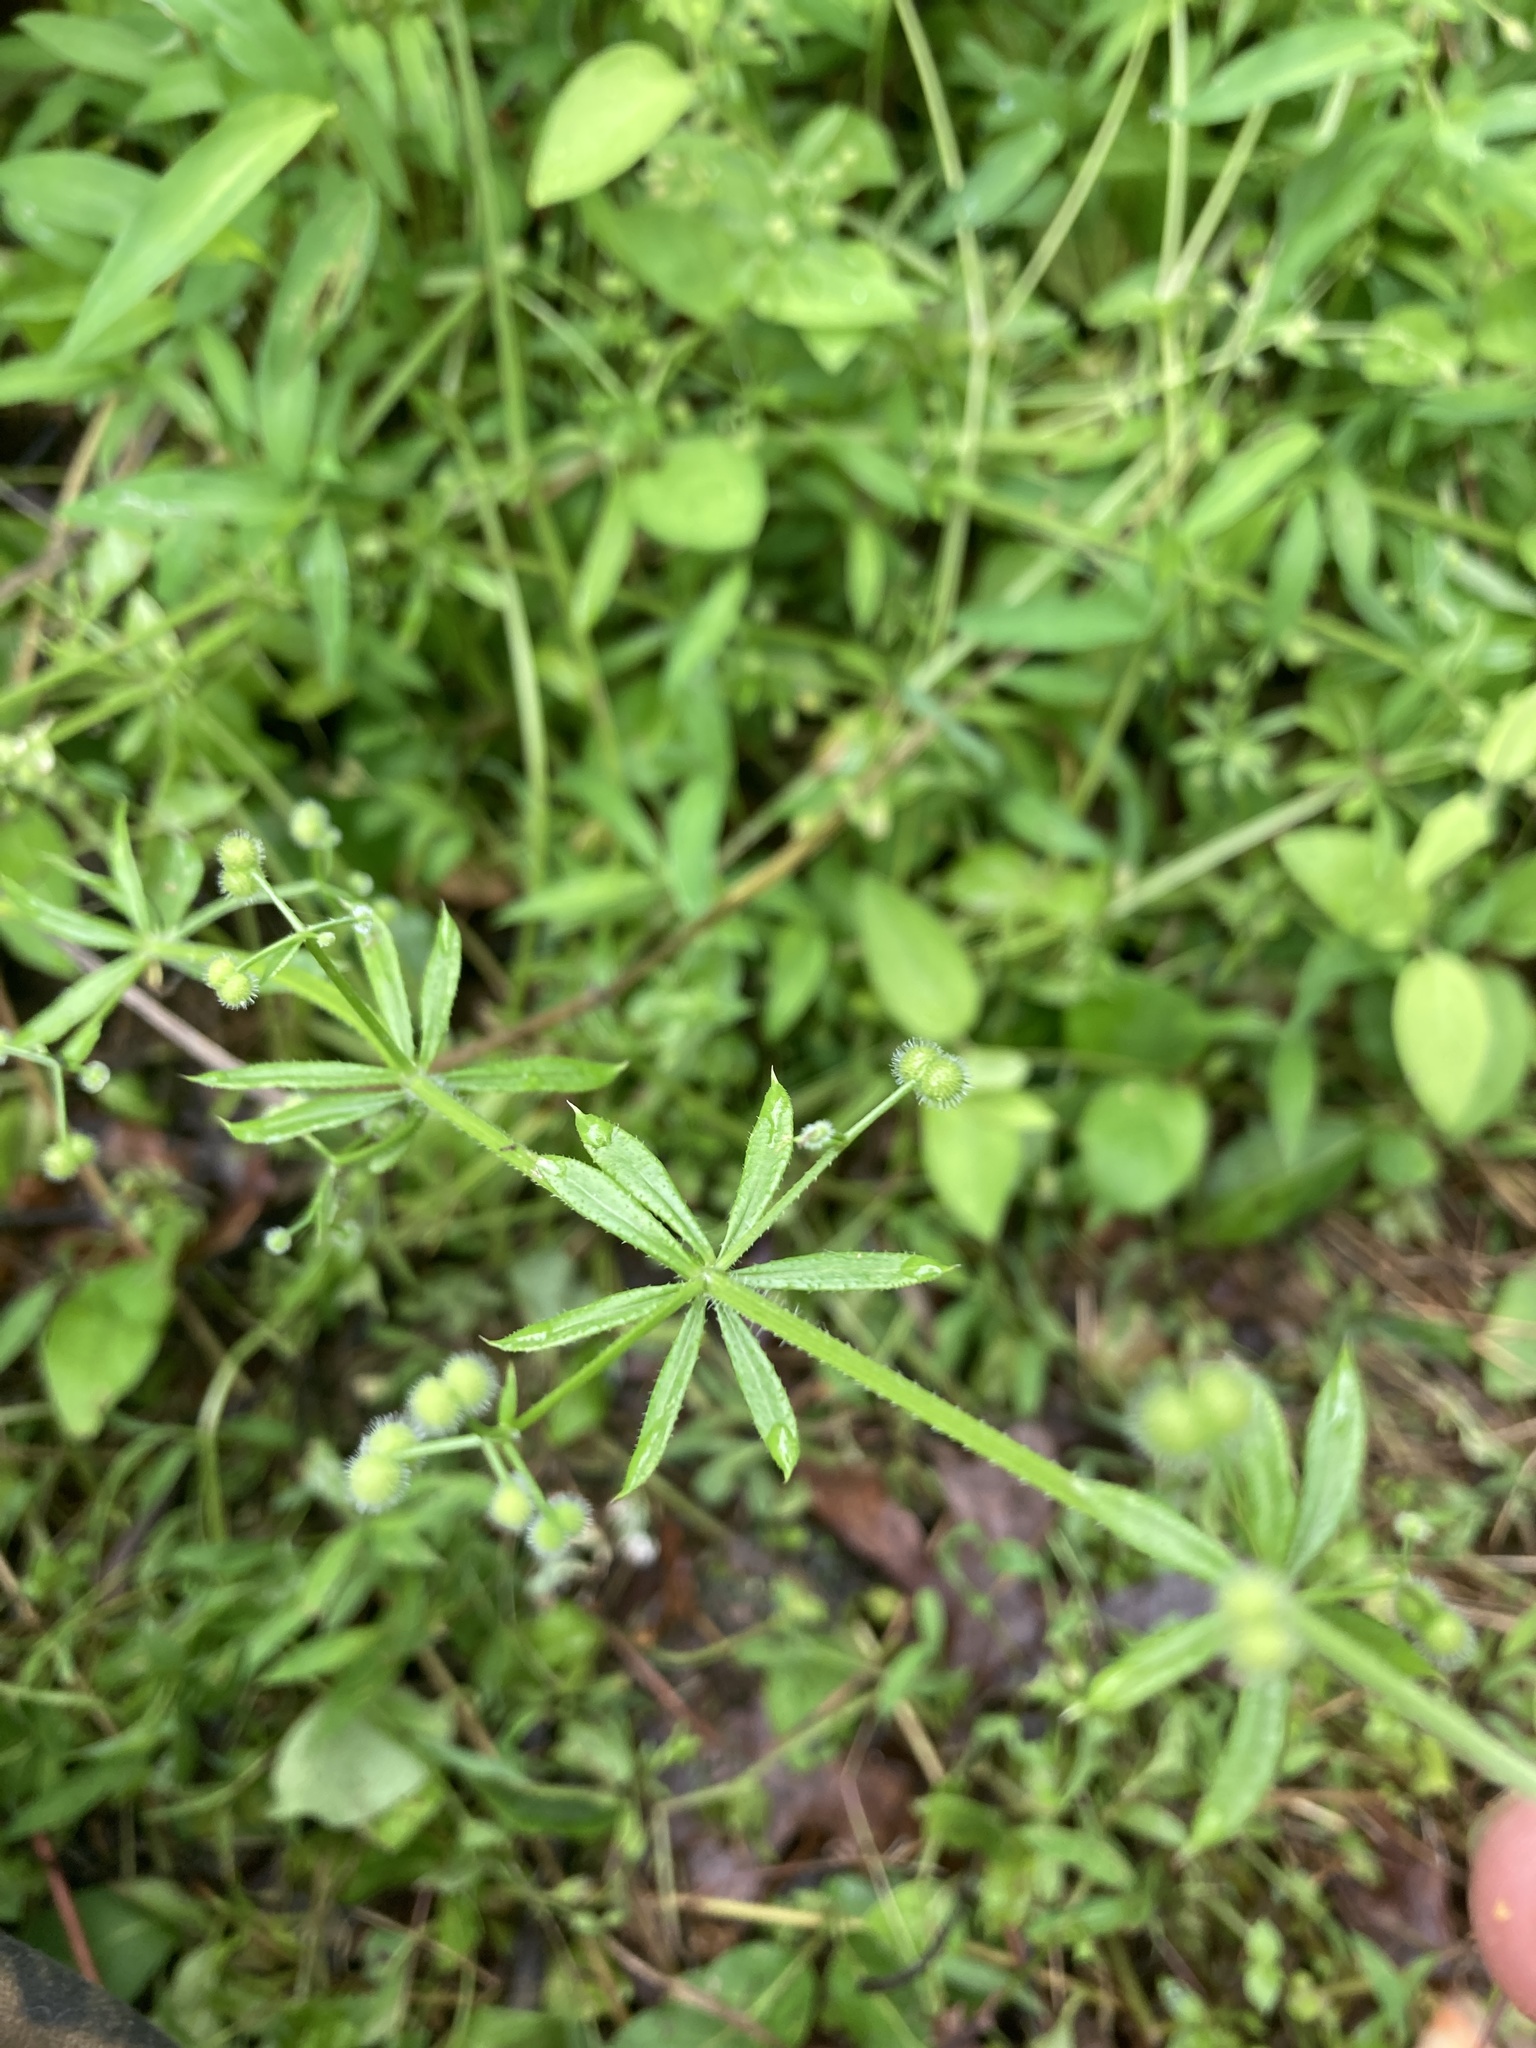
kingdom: Plantae
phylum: Tracheophyta
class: Magnoliopsida
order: Gentianales
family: Rubiaceae
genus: Galium
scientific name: Galium aparine
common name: Cleavers
